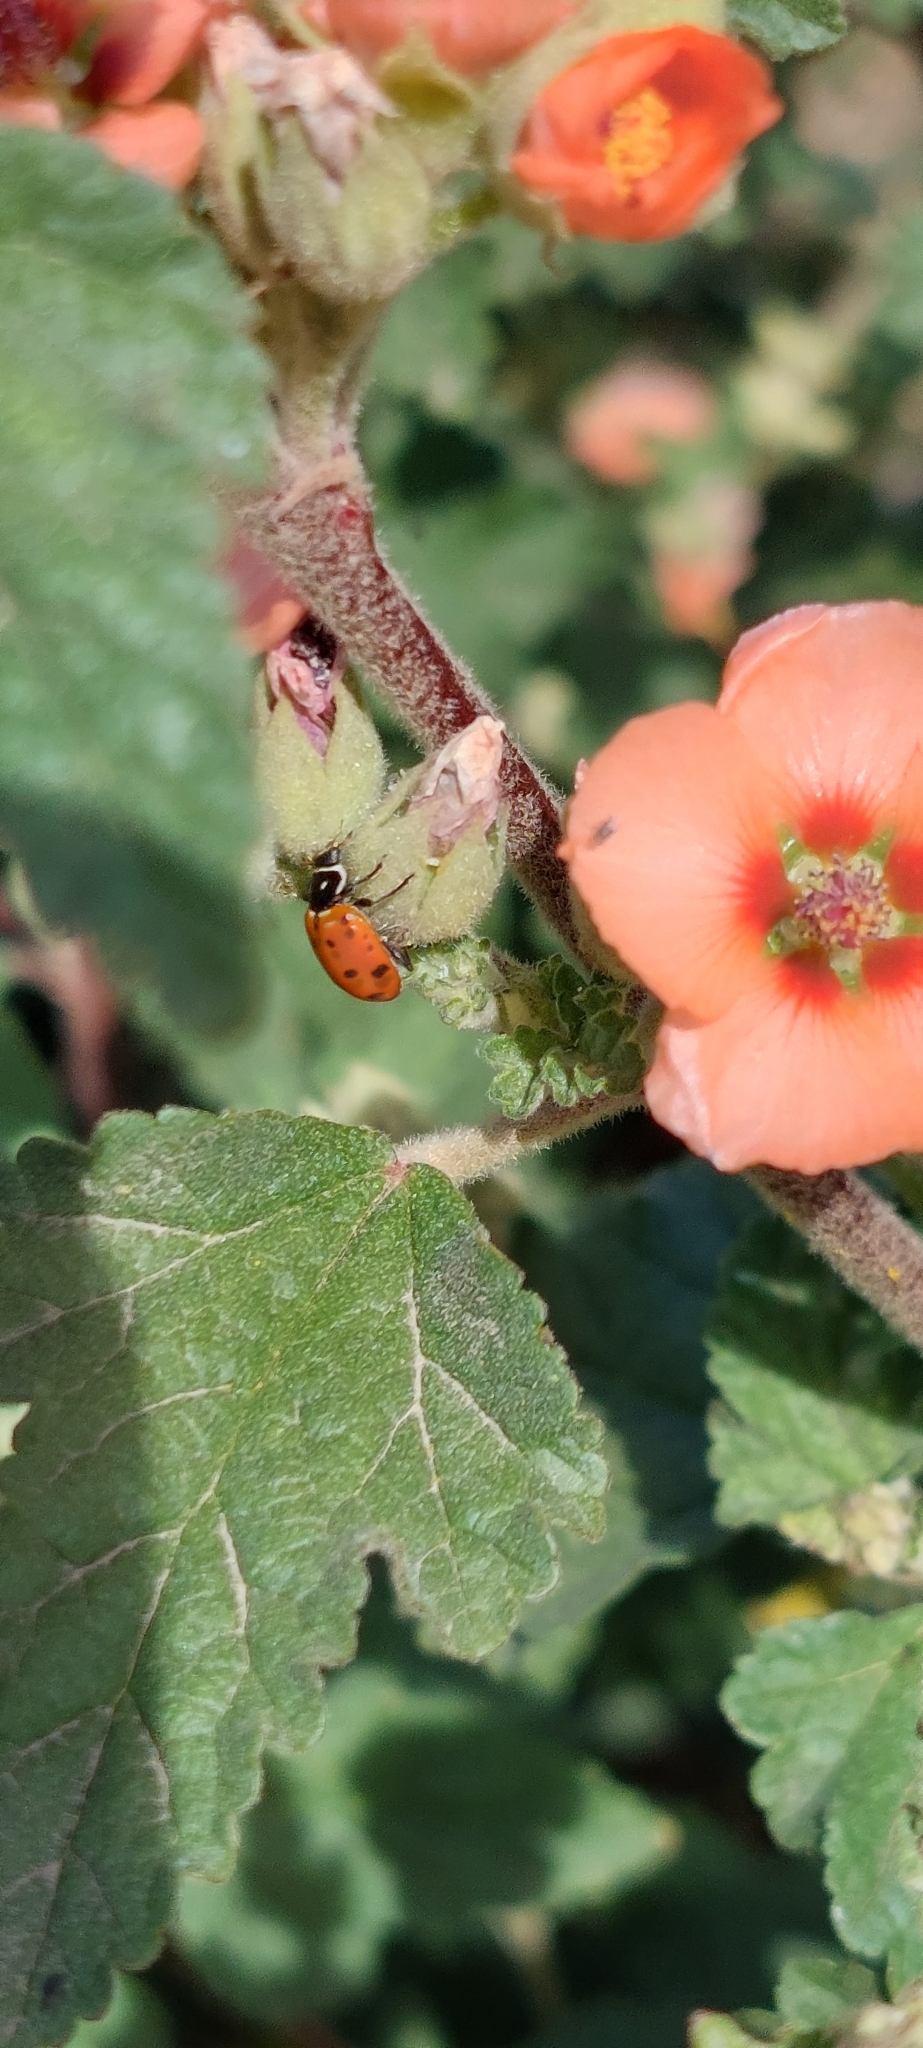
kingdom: Animalia
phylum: Arthropoda
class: Insecta
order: Coleoptera
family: Coccinellidae
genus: Hippodamia
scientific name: Hippodamia convergens
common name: Convergent lady beetle
